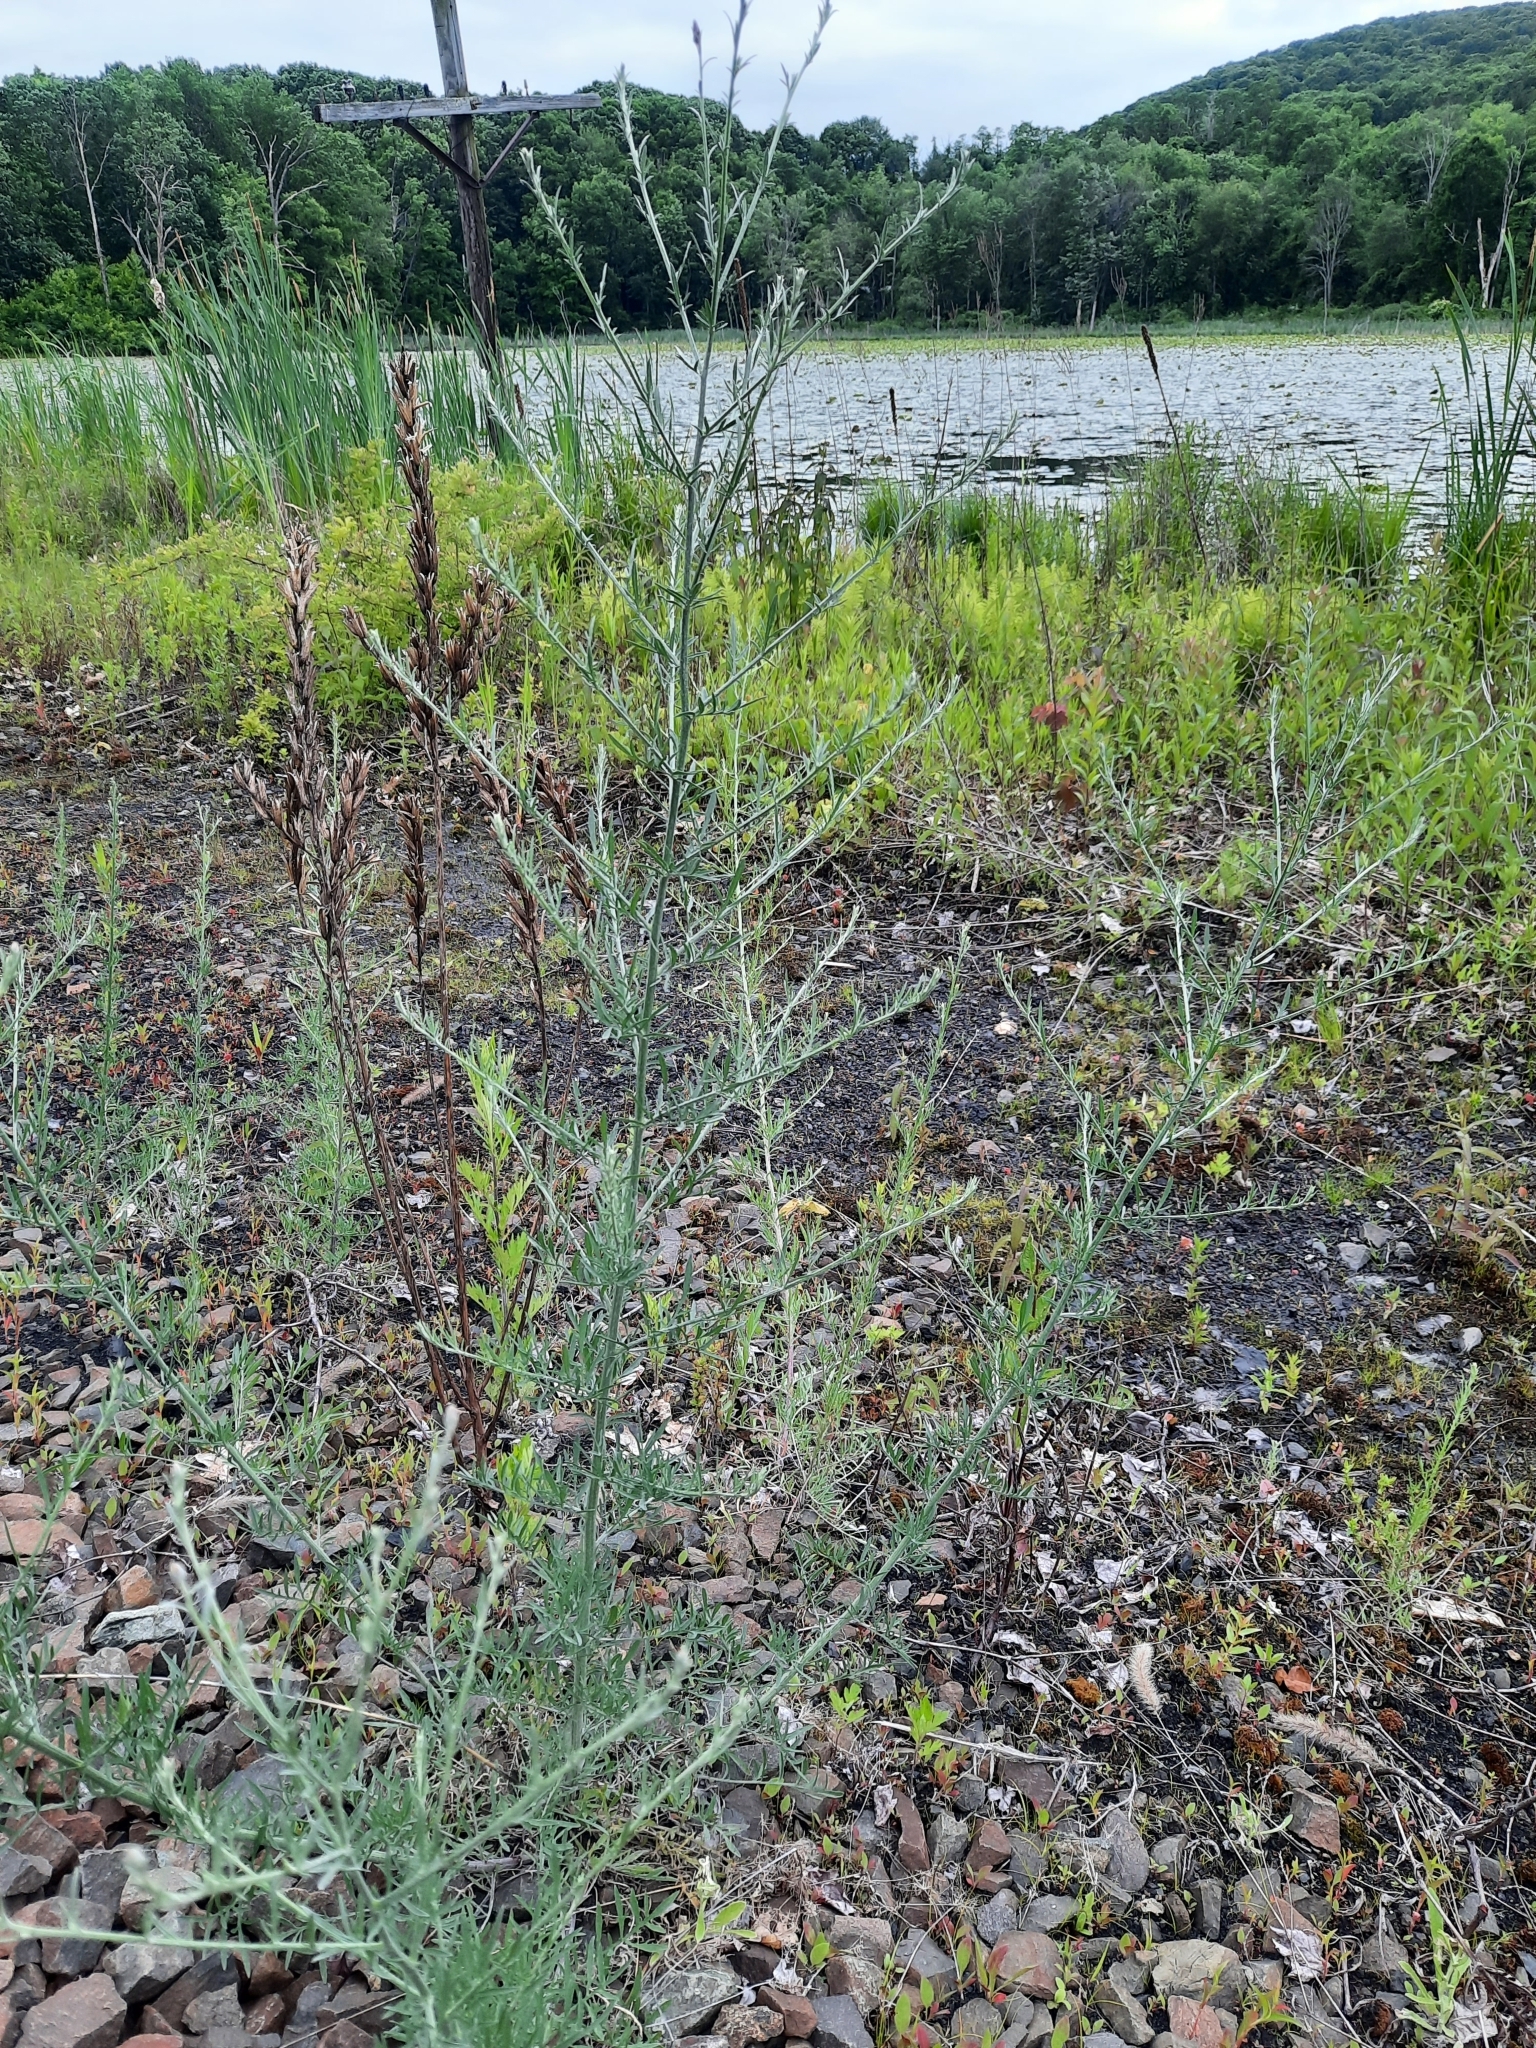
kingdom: Plantae
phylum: Tracheophyta
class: Magnoliopsida
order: Asterales
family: Asteraceae
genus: Centaurea
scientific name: Centaurea stoebe
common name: Spotted knapweed
